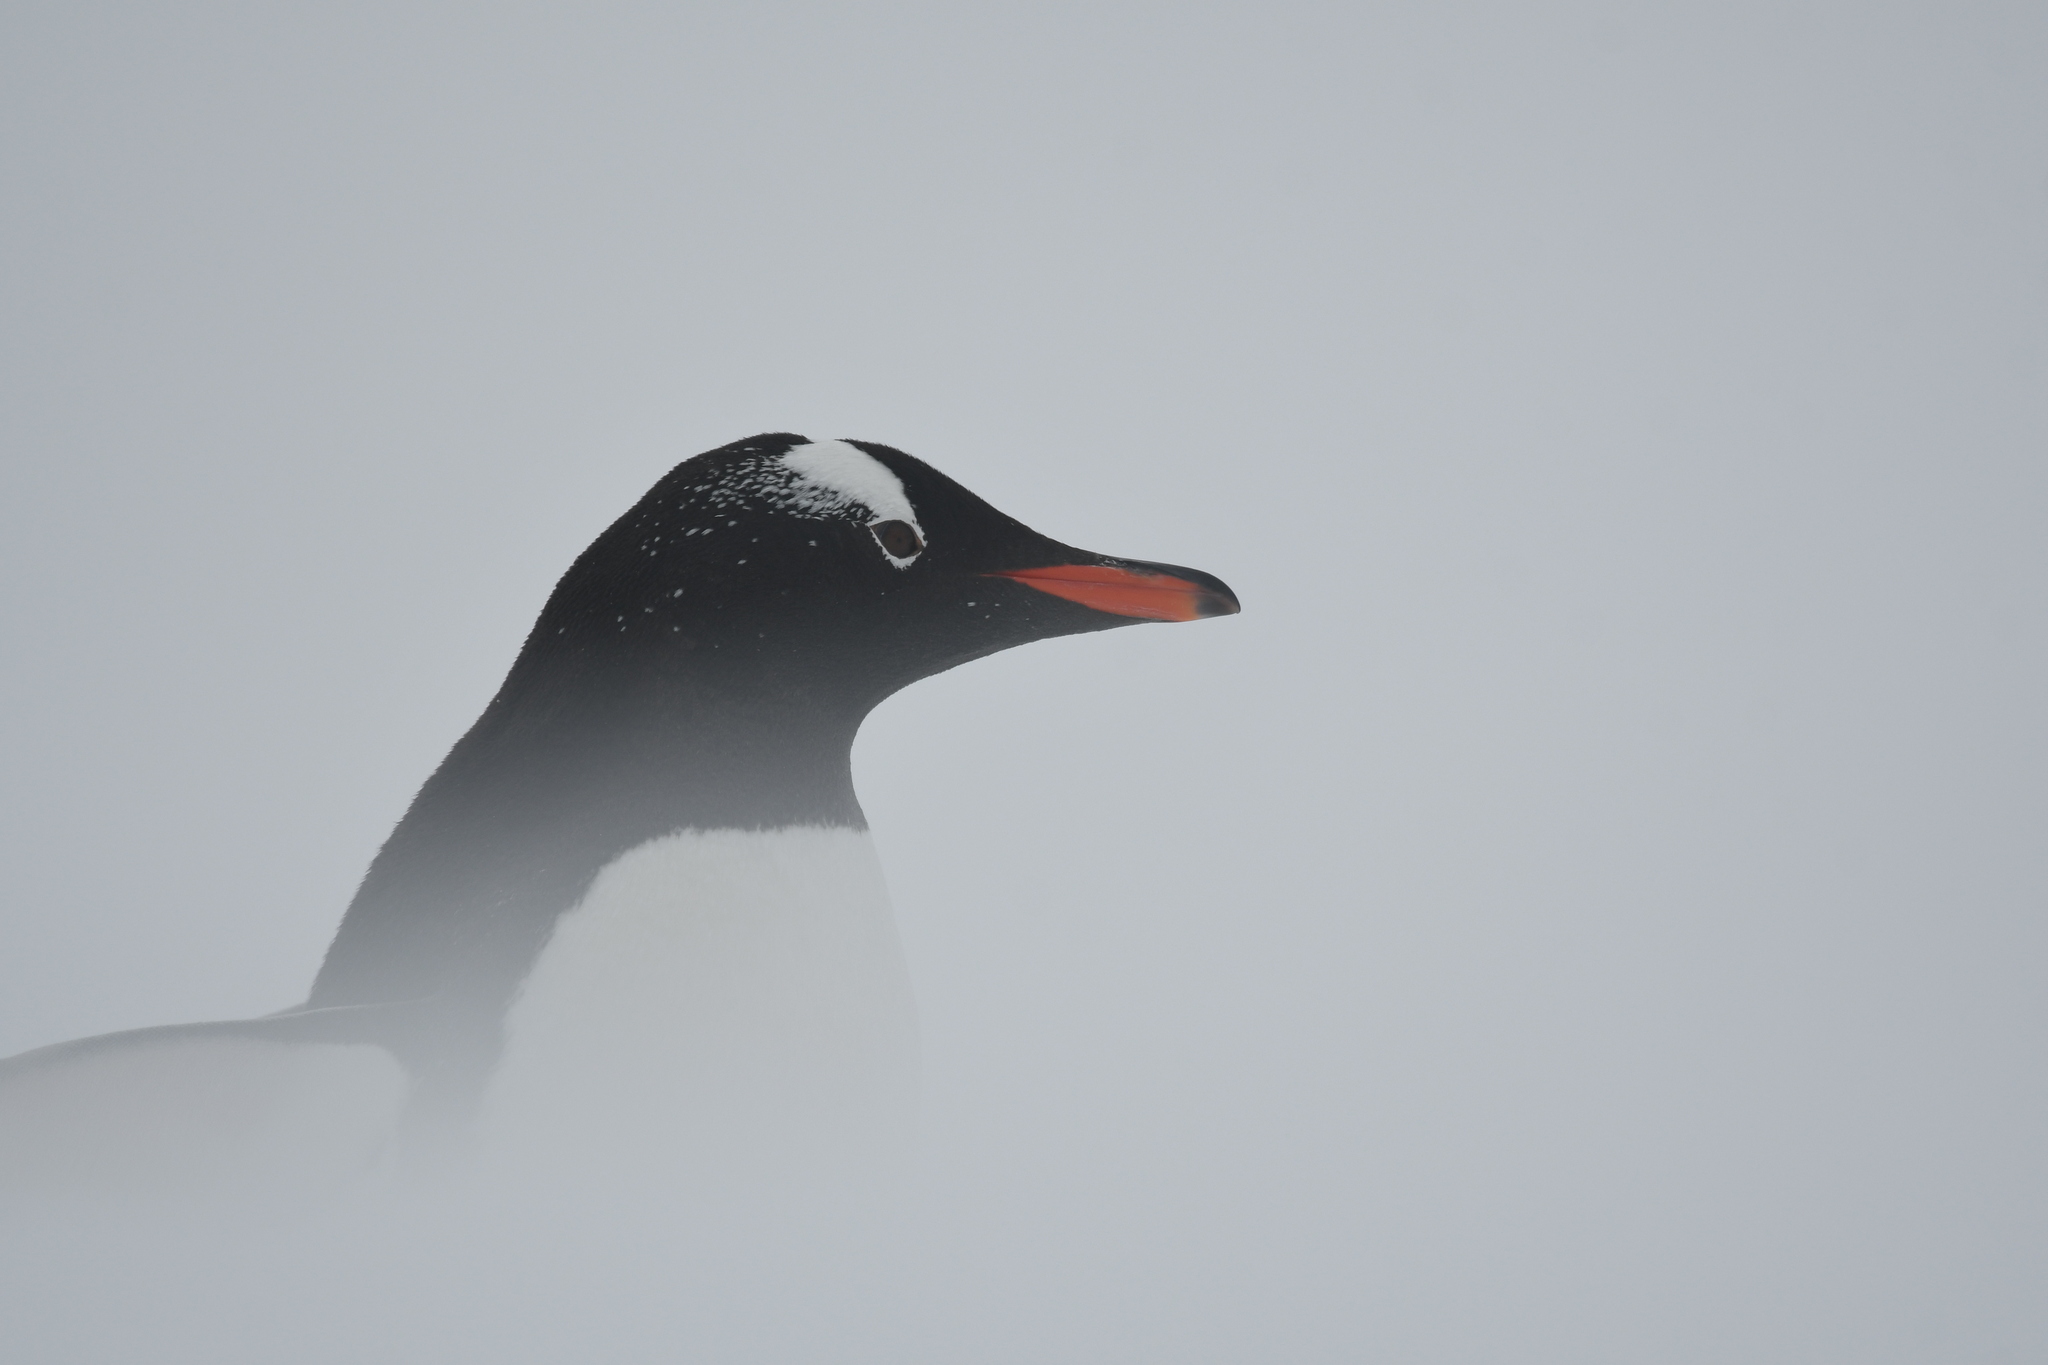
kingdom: Animalia
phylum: Chordata
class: Aves
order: Sphenisciformes
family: Spheniscidae
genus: Pygoscelis
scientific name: Pygoscelis papua
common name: Gentoo penguin
